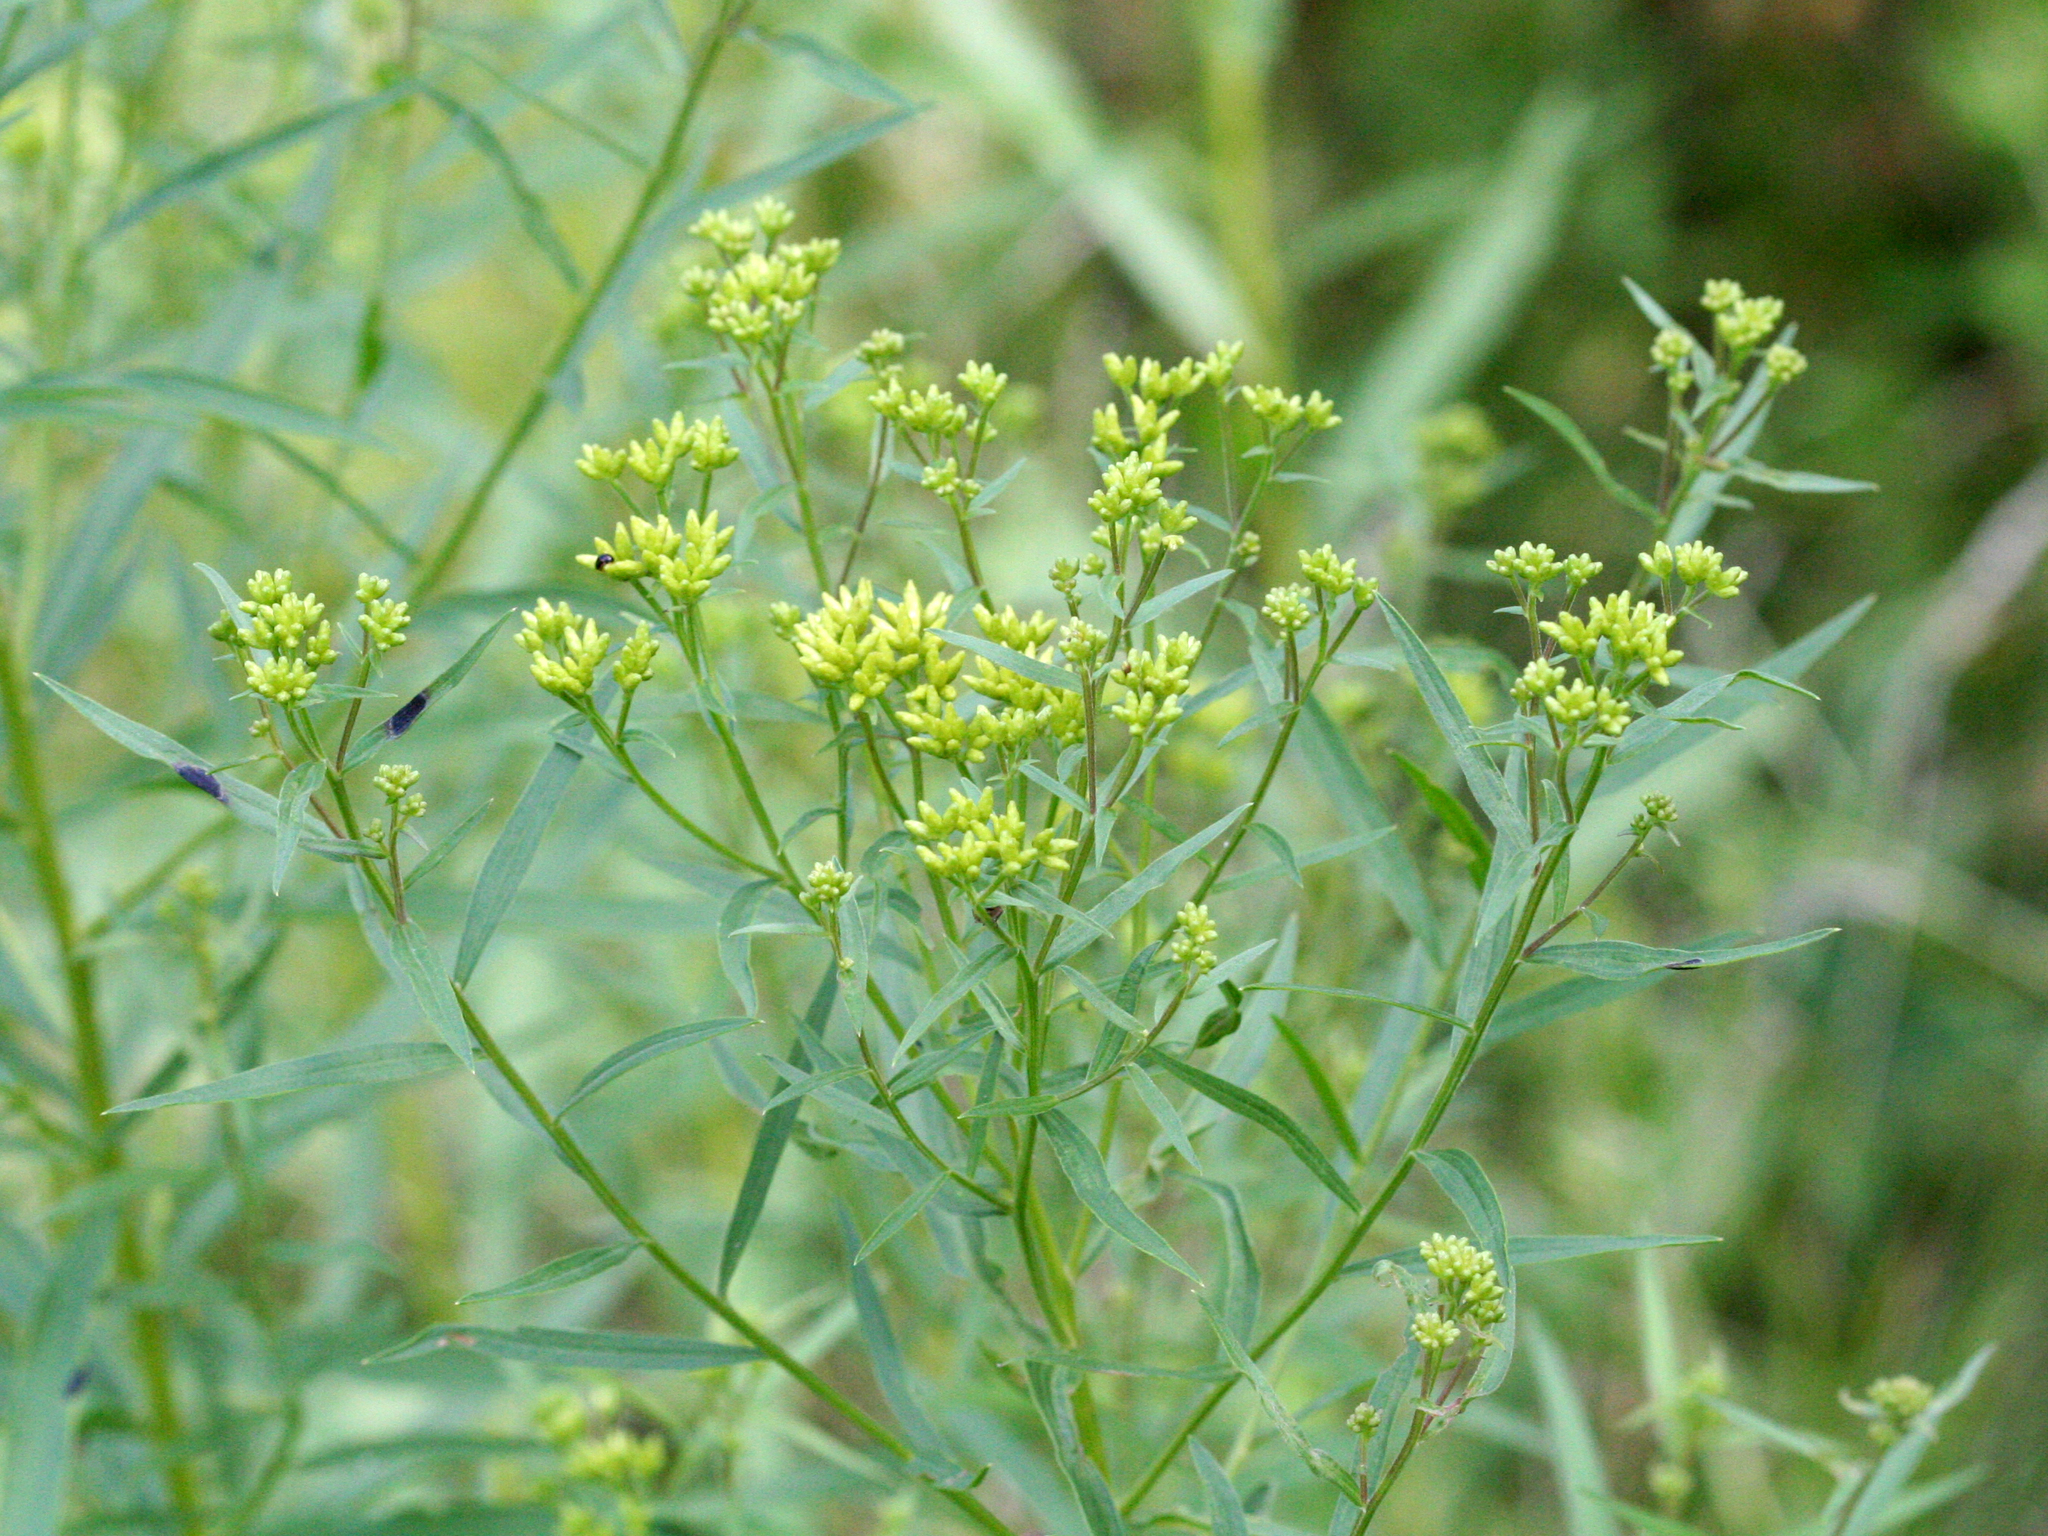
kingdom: Plantae
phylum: Tracheophyta
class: Magnoliopsida
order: Asterales
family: Asteraceae
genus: Euthamia
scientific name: Euthamia graminifolia
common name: Common goldentop
